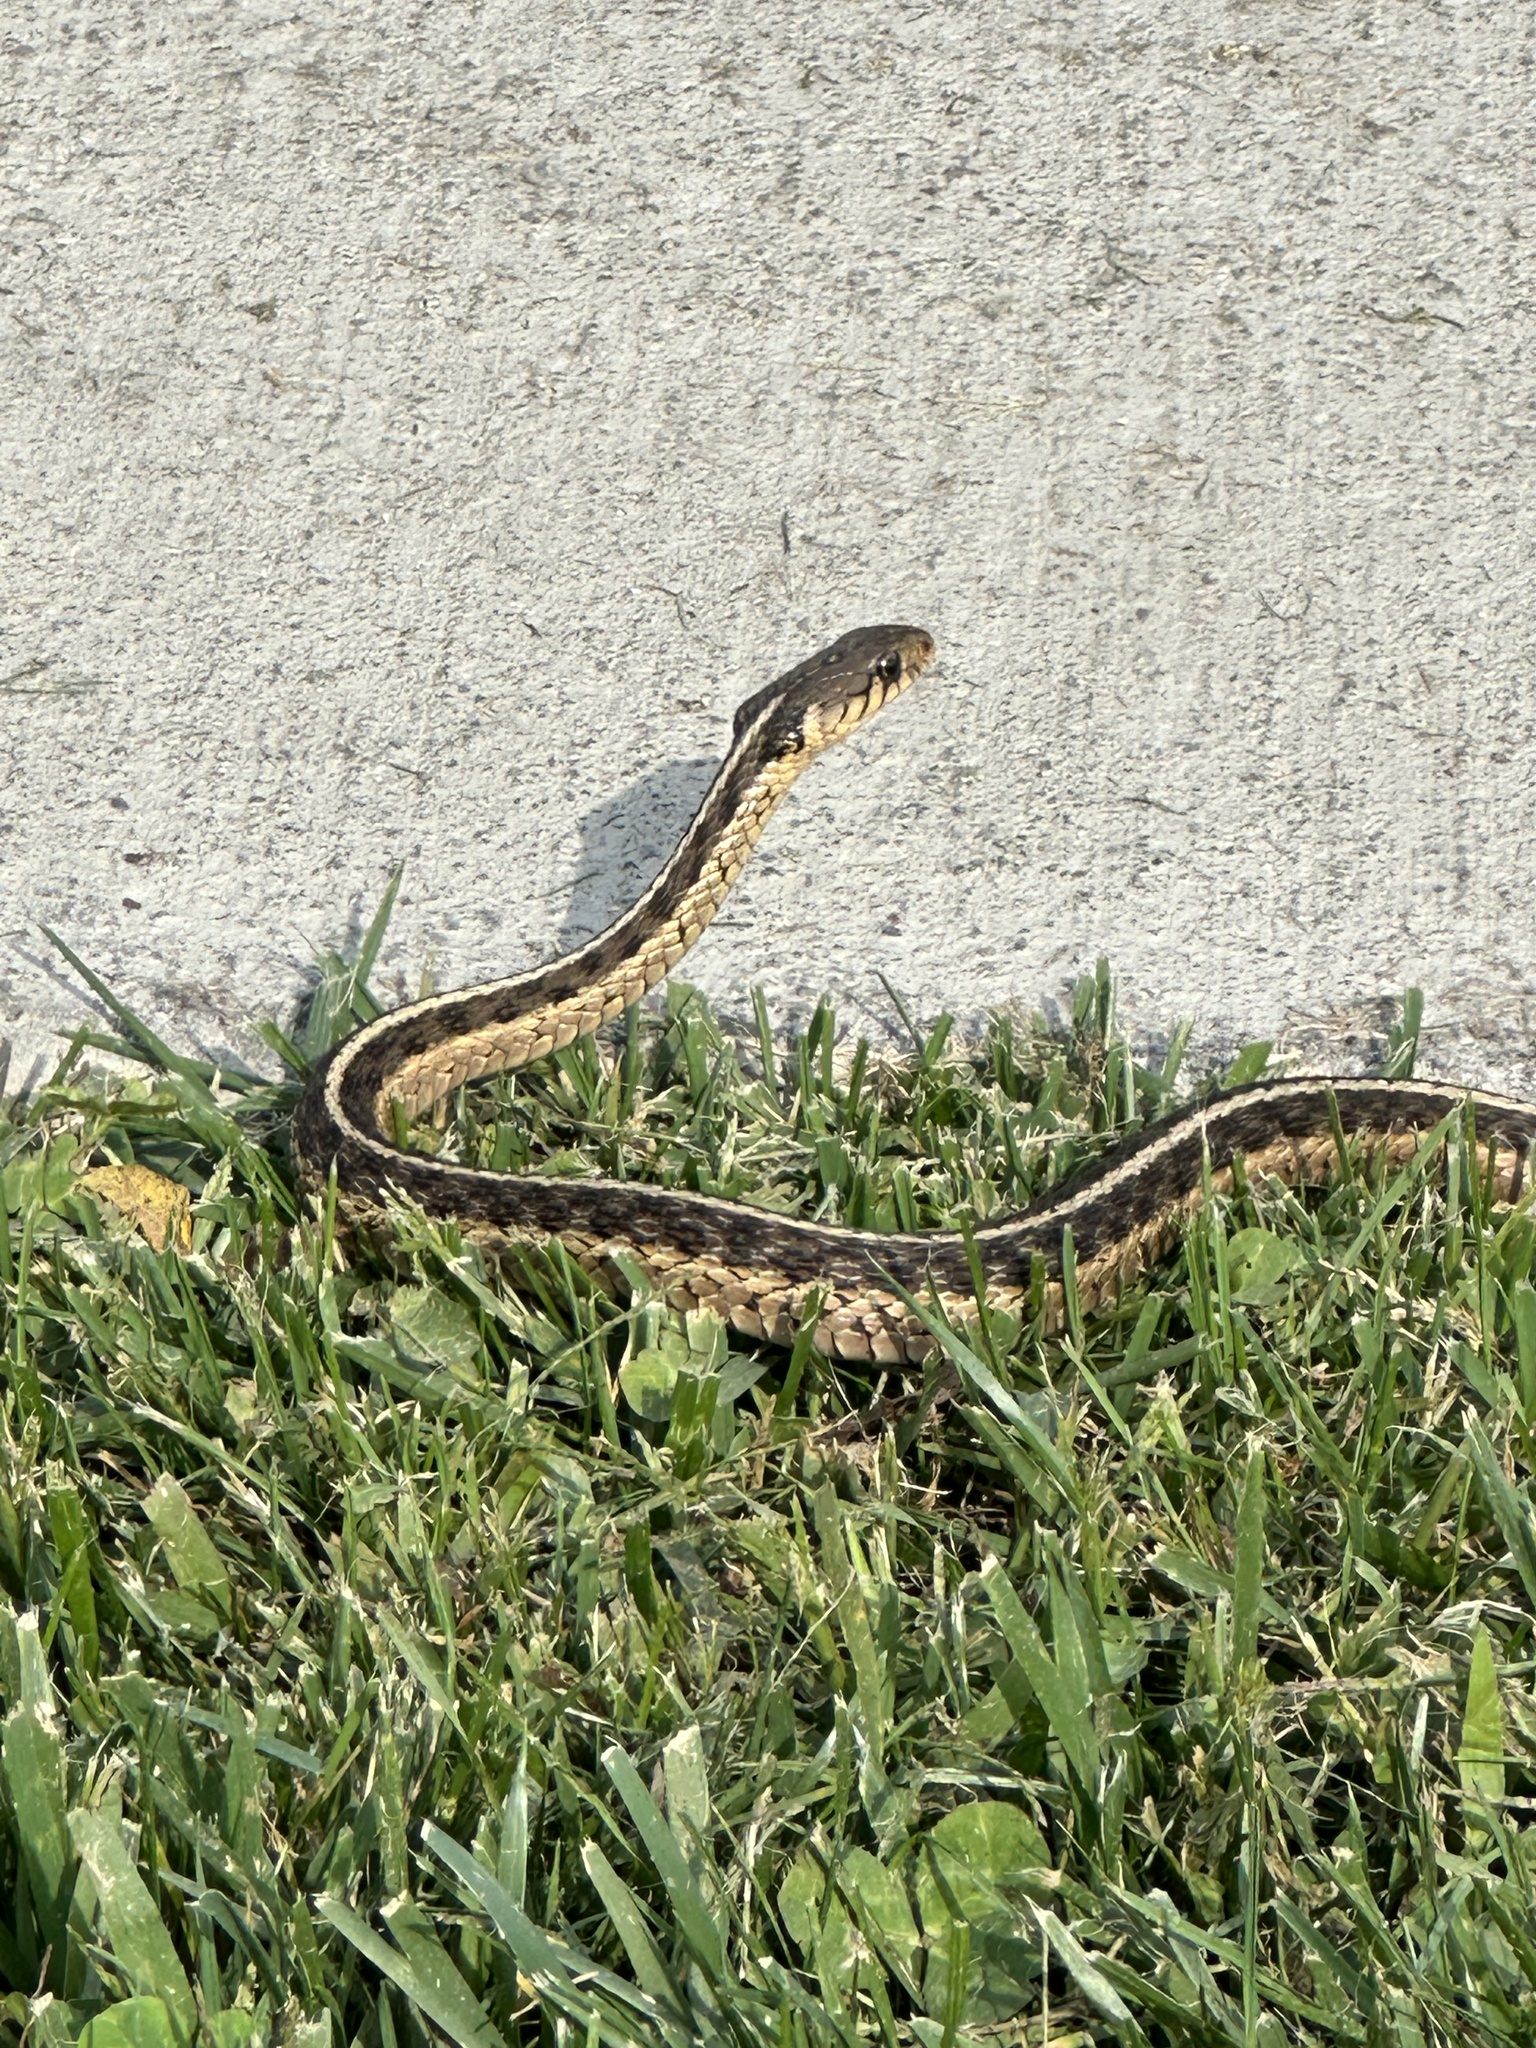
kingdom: Animalia
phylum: Chordata
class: Squamata
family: Colubridae
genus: Thamnophis
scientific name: Thamnophis sirtalis
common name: Common garter snake
